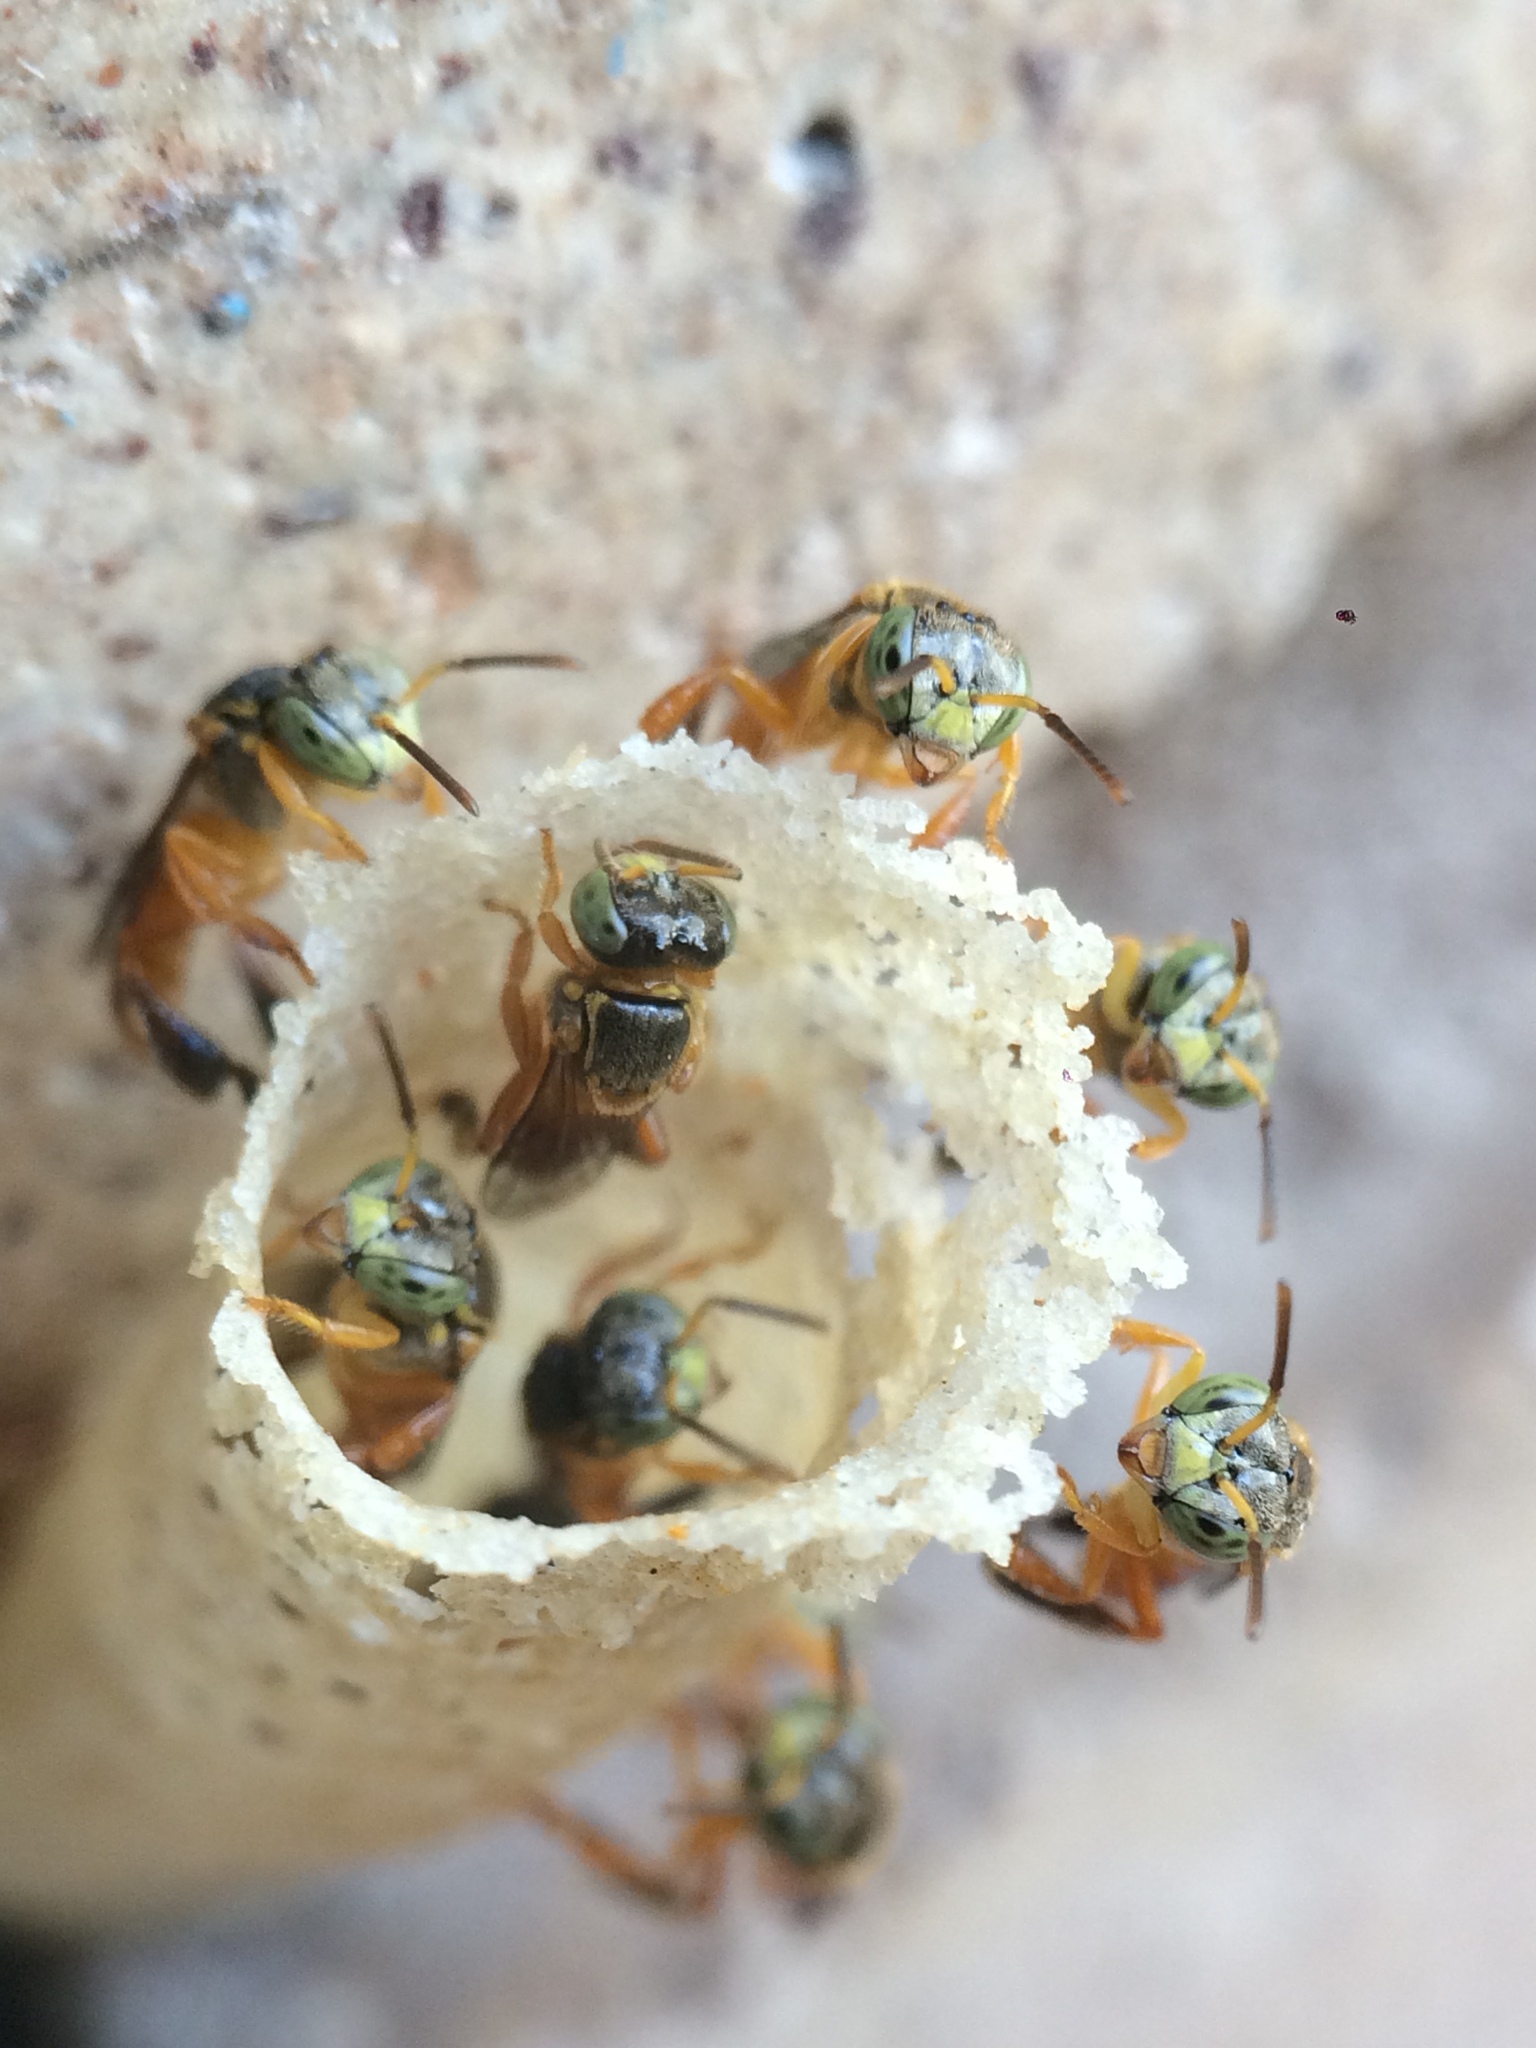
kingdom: Animalia
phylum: Arthropoda
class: Insecta
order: Hymenoptera
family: Apidae
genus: Tetragonisca
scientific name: Tetragonisca angustula
